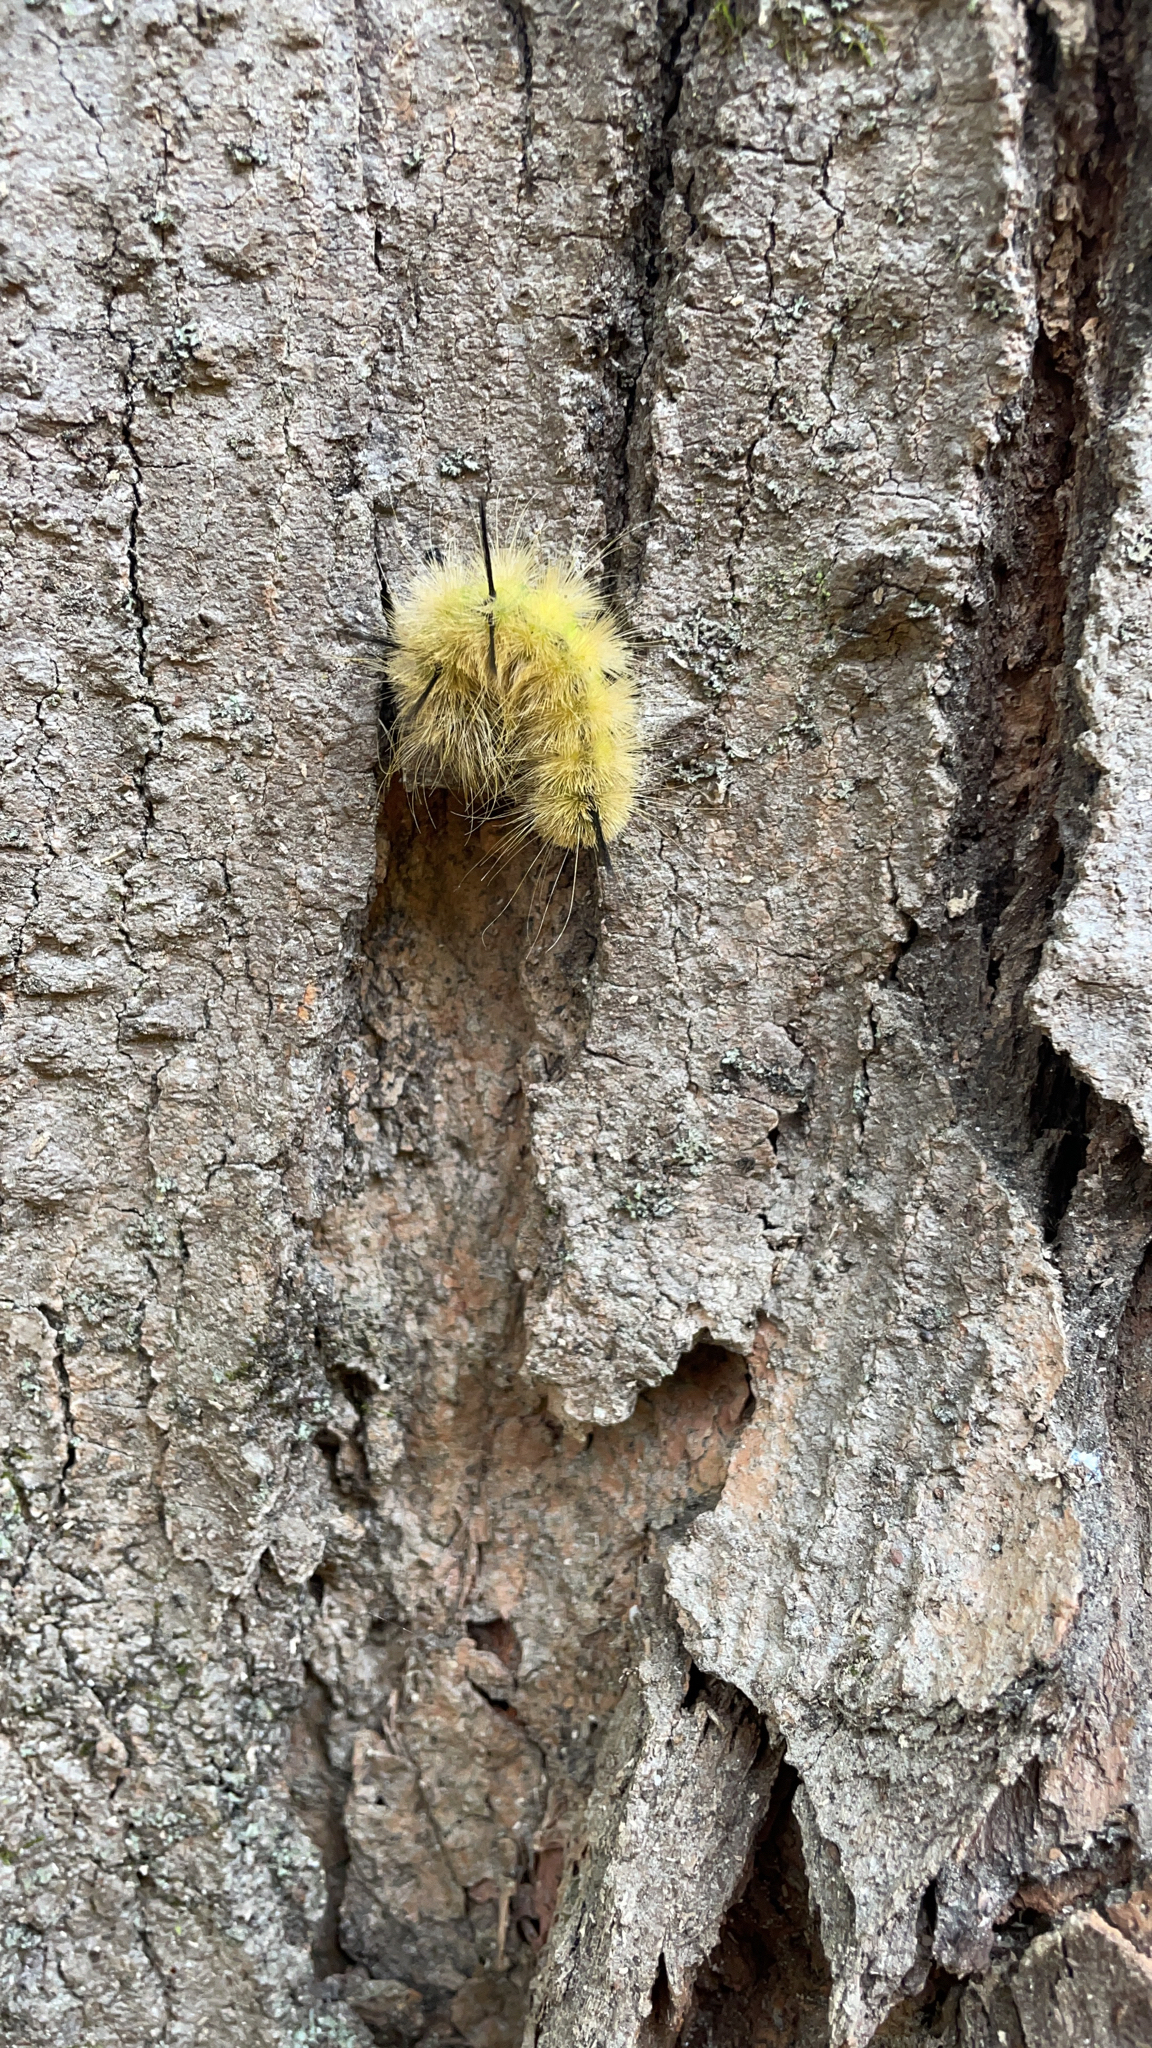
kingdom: Animalia
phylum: Arthropoda
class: Insecta
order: Lepidoptera
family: Noctuidae
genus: Acronicta
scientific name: Acronicta americana
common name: American dagger
